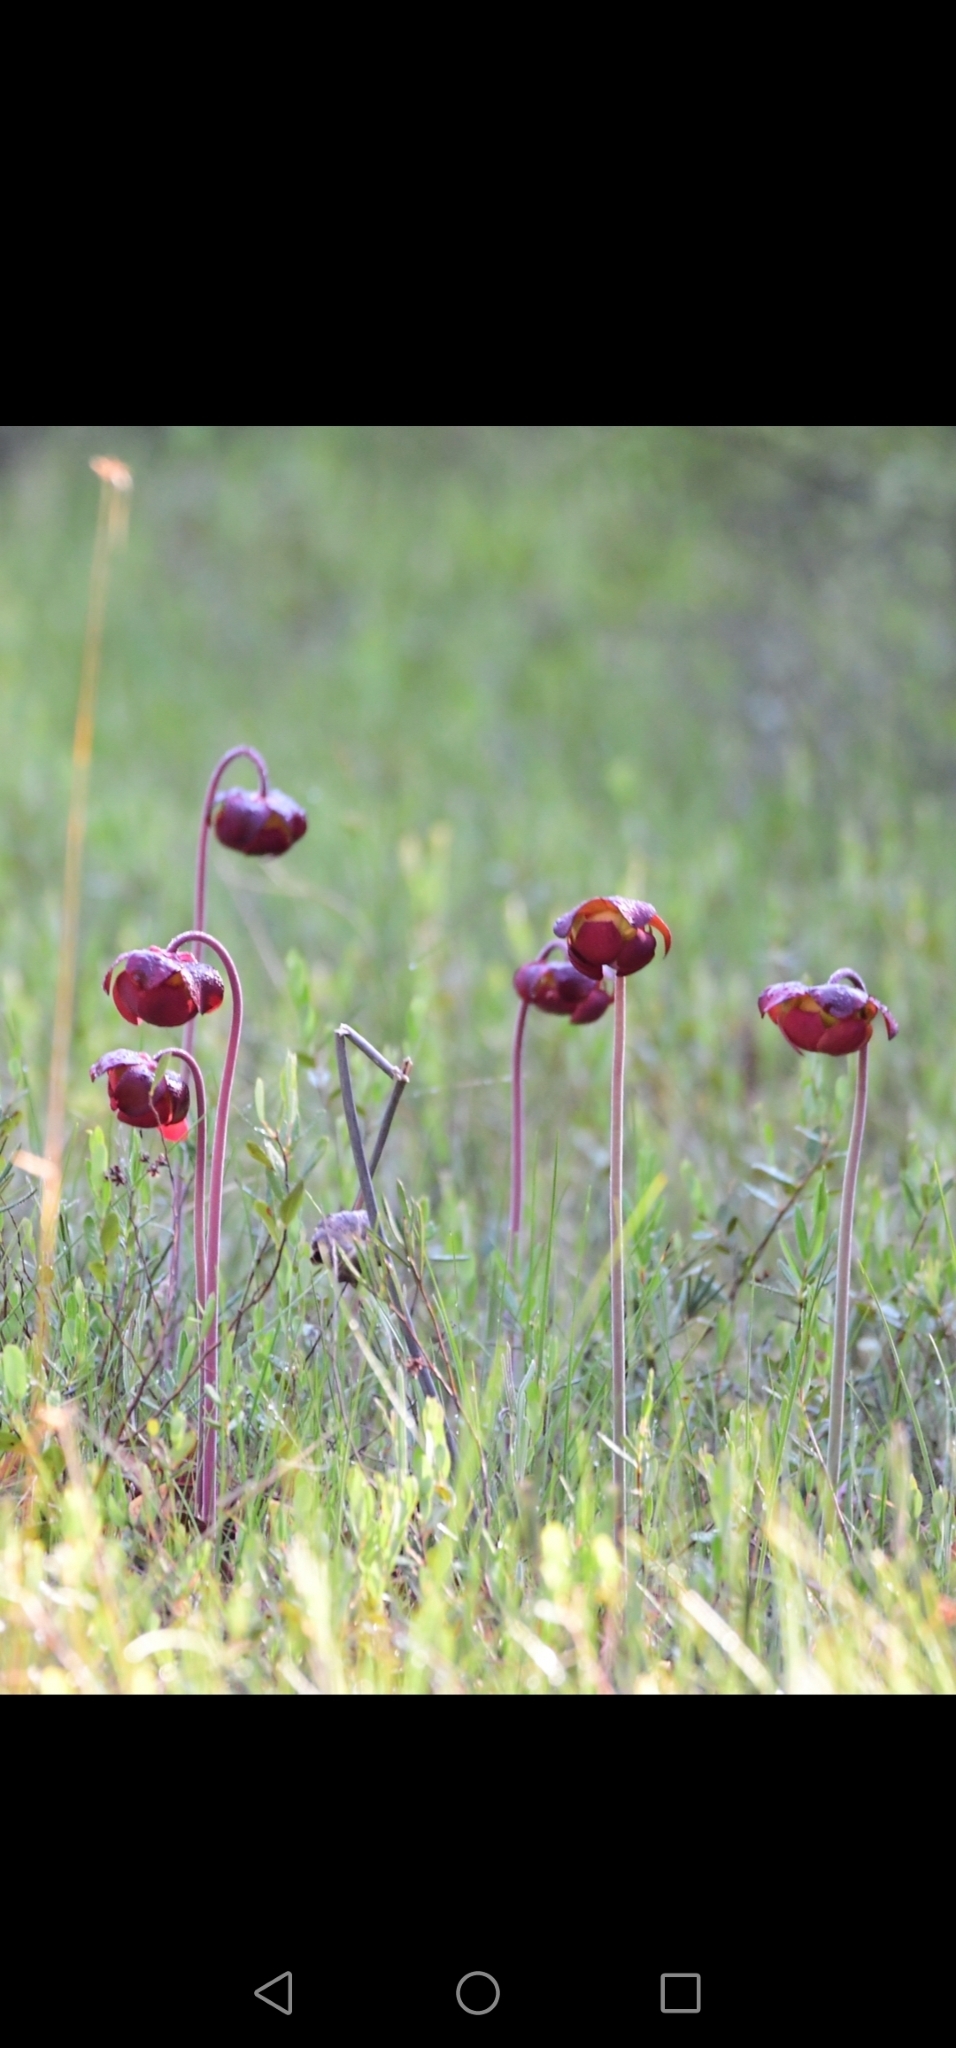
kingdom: Plantae
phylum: Tracheophyta
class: Magnoliopsida
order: Ericales
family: Sarraceniaceae
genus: Sarracenia
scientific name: Sarracenia purpurea
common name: Pitcherplant
